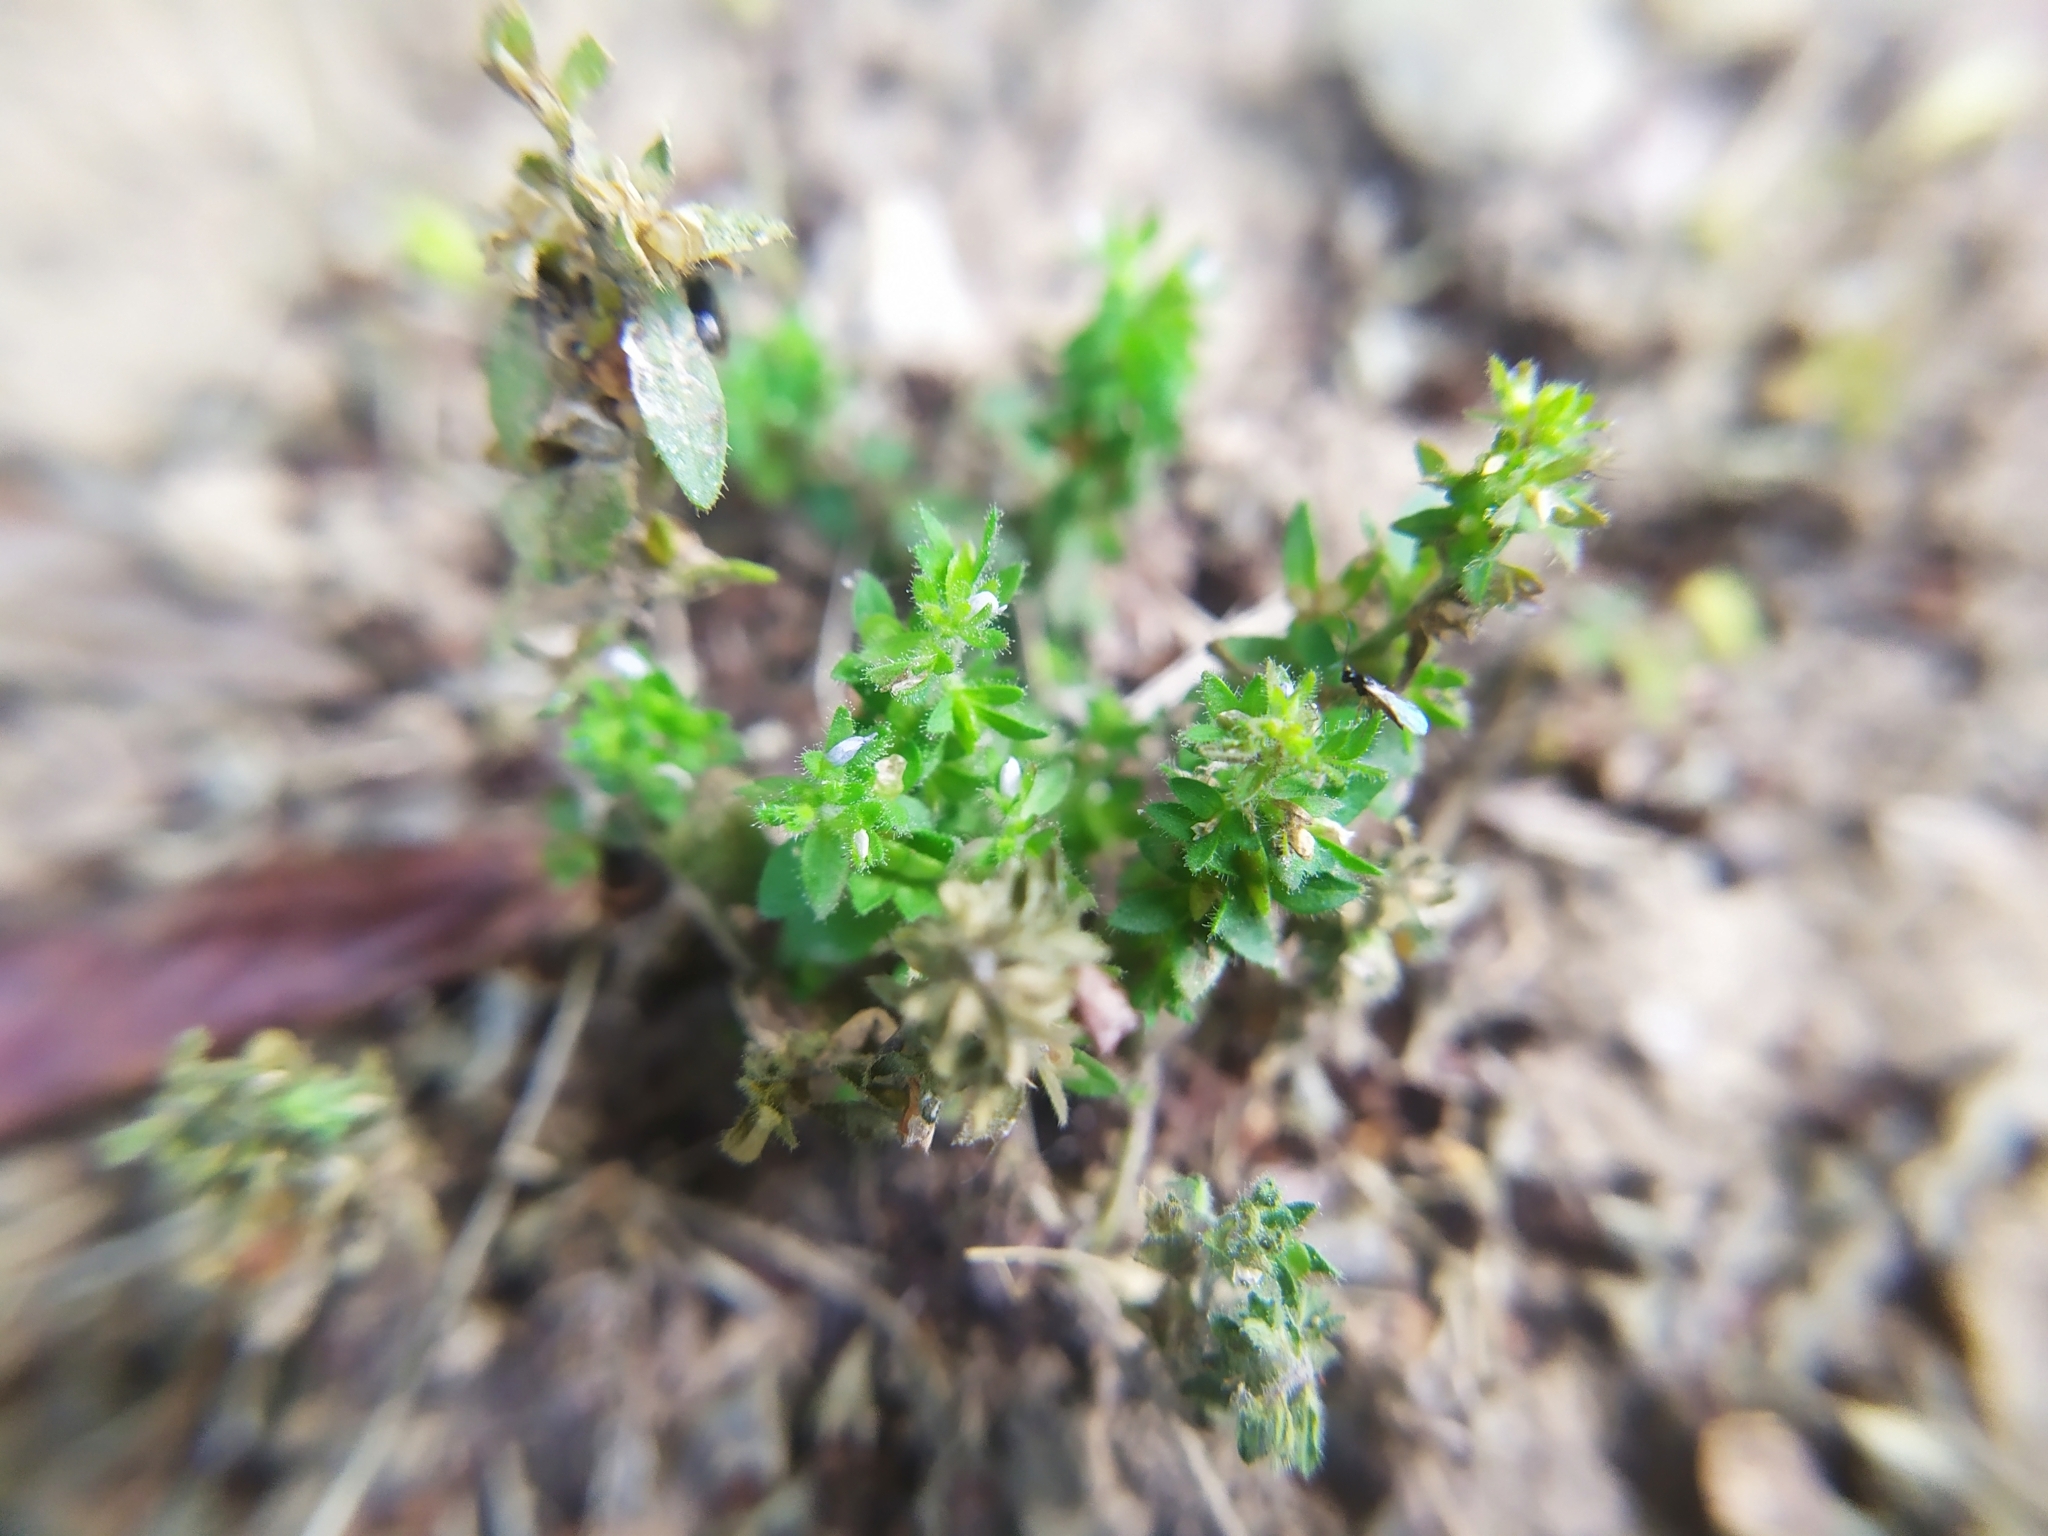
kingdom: Plantae
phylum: Tracheophyta
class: Magnoliopsida
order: Lamiales
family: Plantaginaceae
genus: Veronica
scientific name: Veronica arvensis
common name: Corn speedwell
